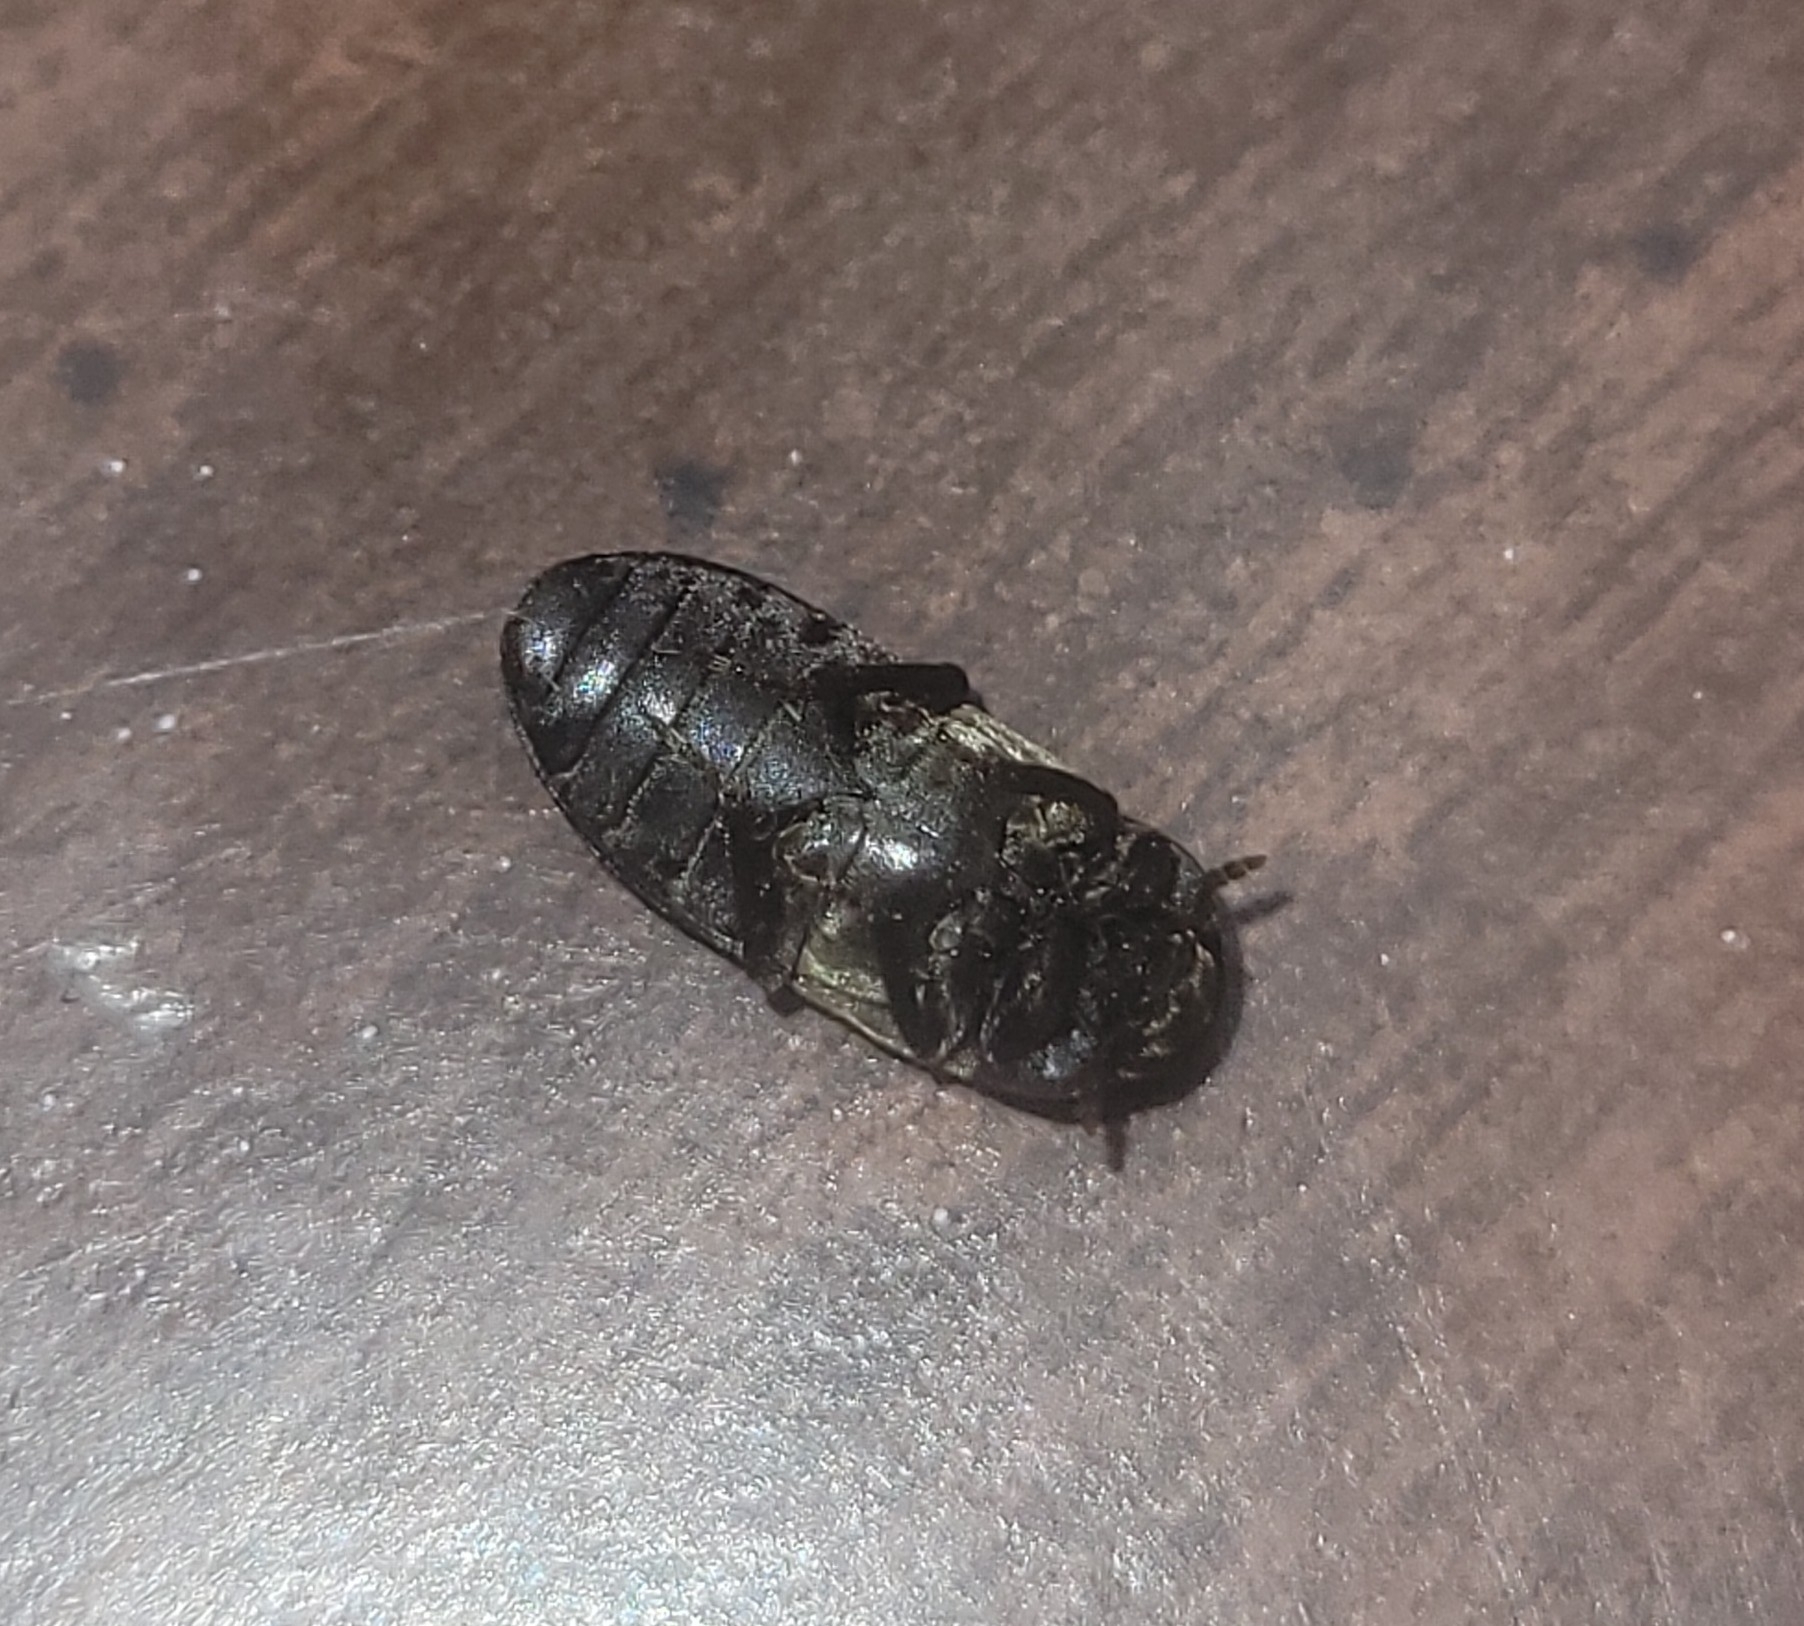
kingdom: Animalia
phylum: Arthropoda
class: Insecta
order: Coleoptera
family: Dermestidae
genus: Dermestes
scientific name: Dermestes lardarius
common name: Larder beetle
